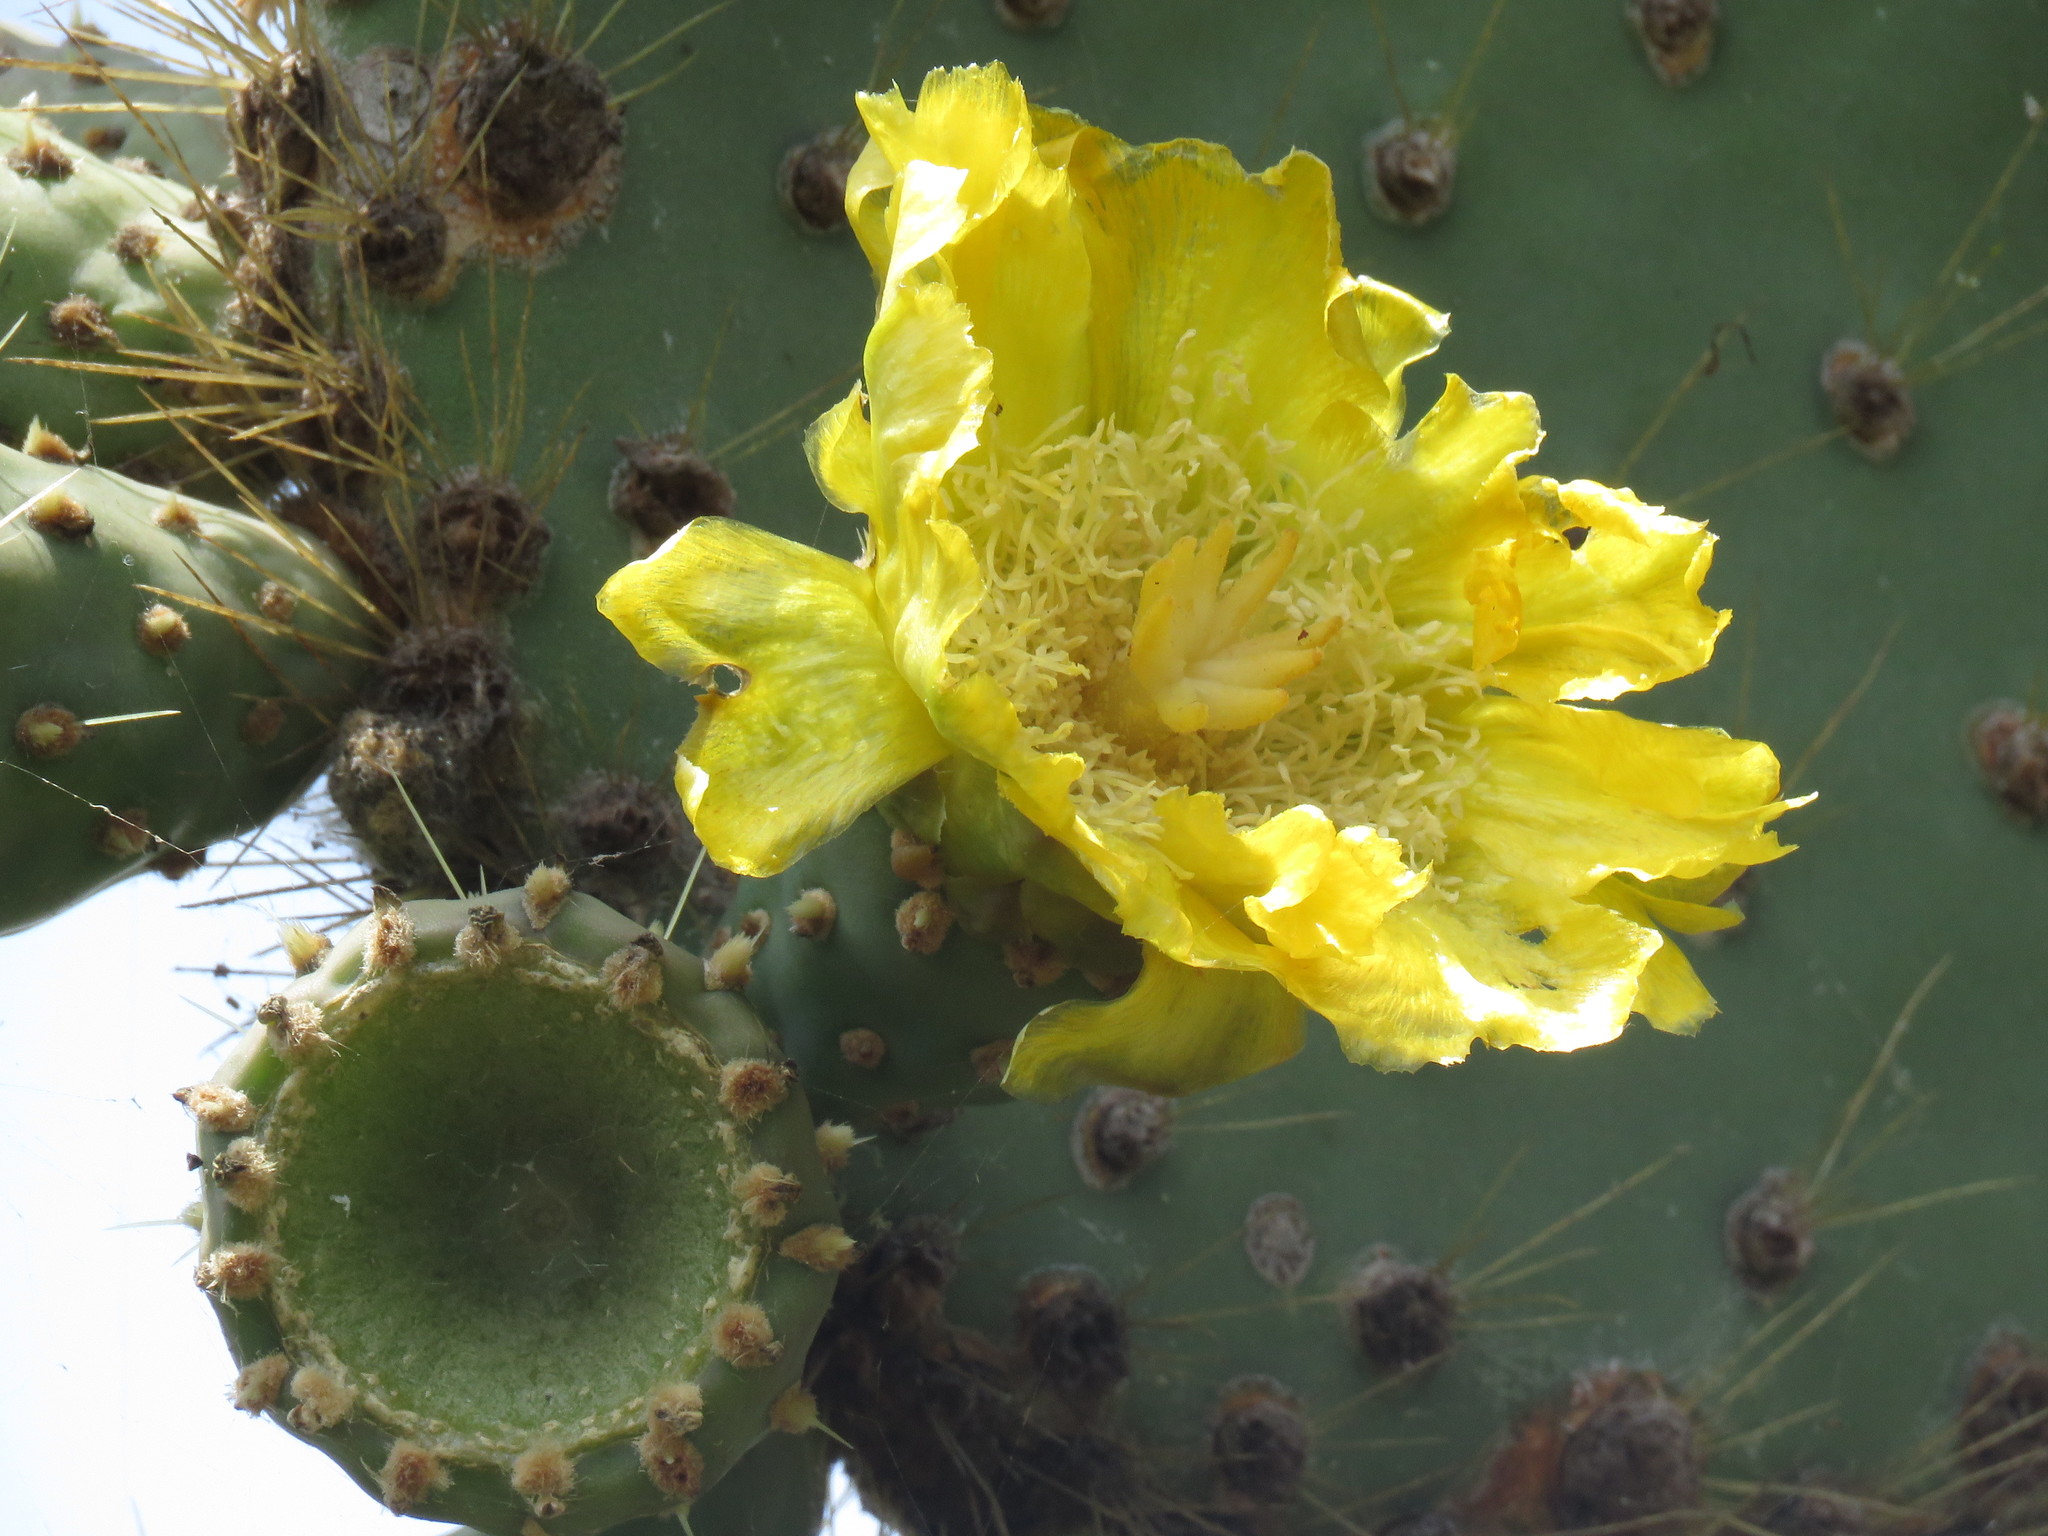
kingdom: Plantae
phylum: Tracheophyta
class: Magnoliopsida
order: Caryophyllales
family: Cactaceae
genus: Opuntia
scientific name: Opuntia galapageia
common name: Galápagos prickly pear
